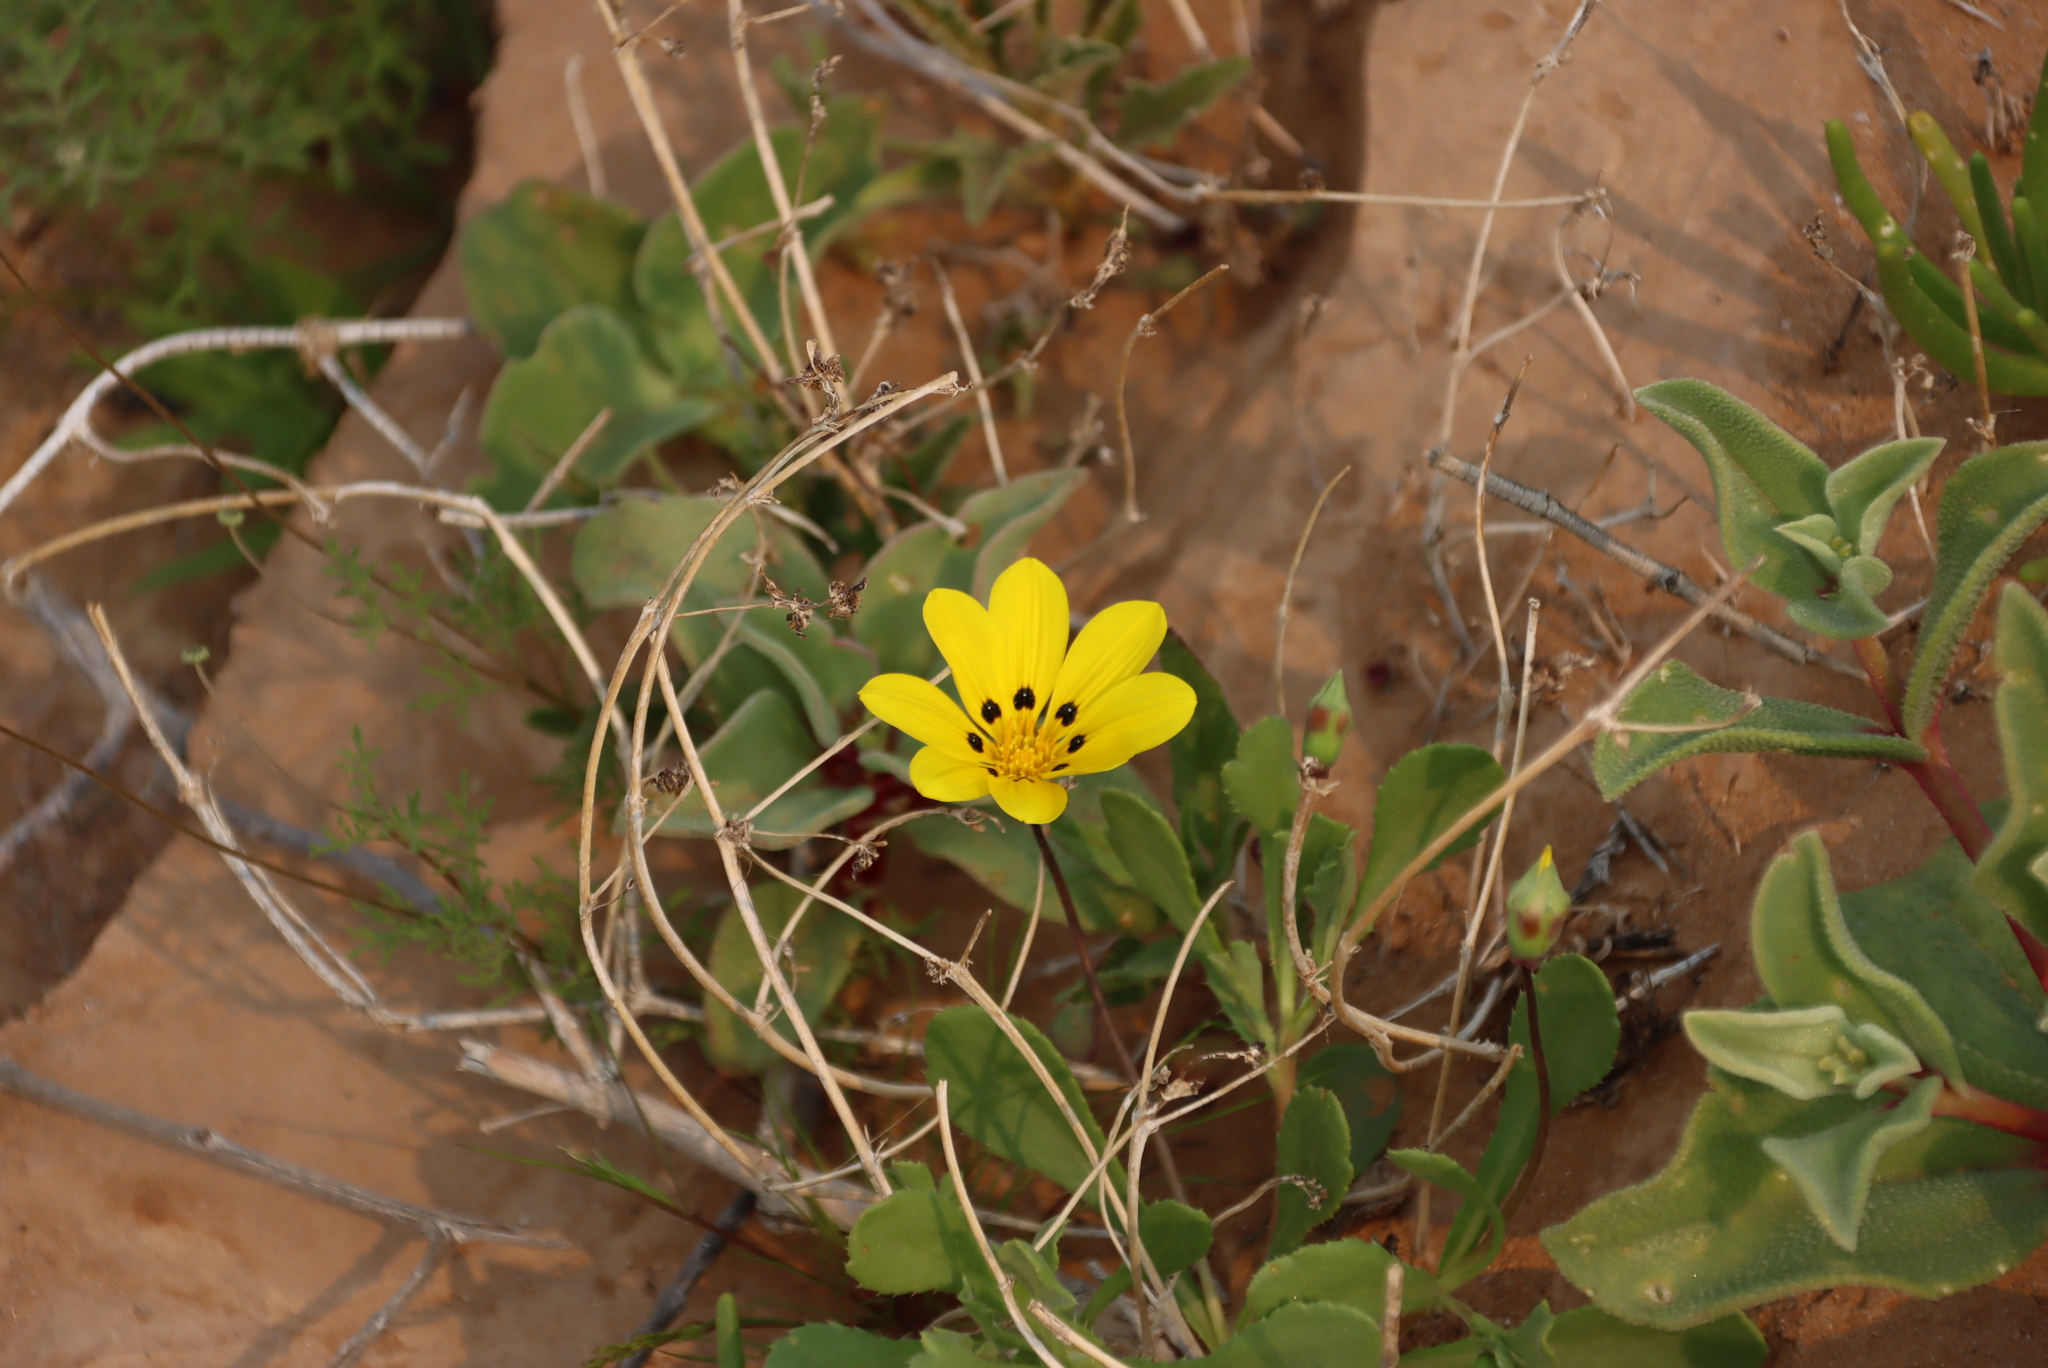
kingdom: Plantae
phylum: Tracheophyta
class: Magnoliopsida
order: Asterales
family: Asteraceae
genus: Gazania
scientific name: Gazania lichtensteinii
